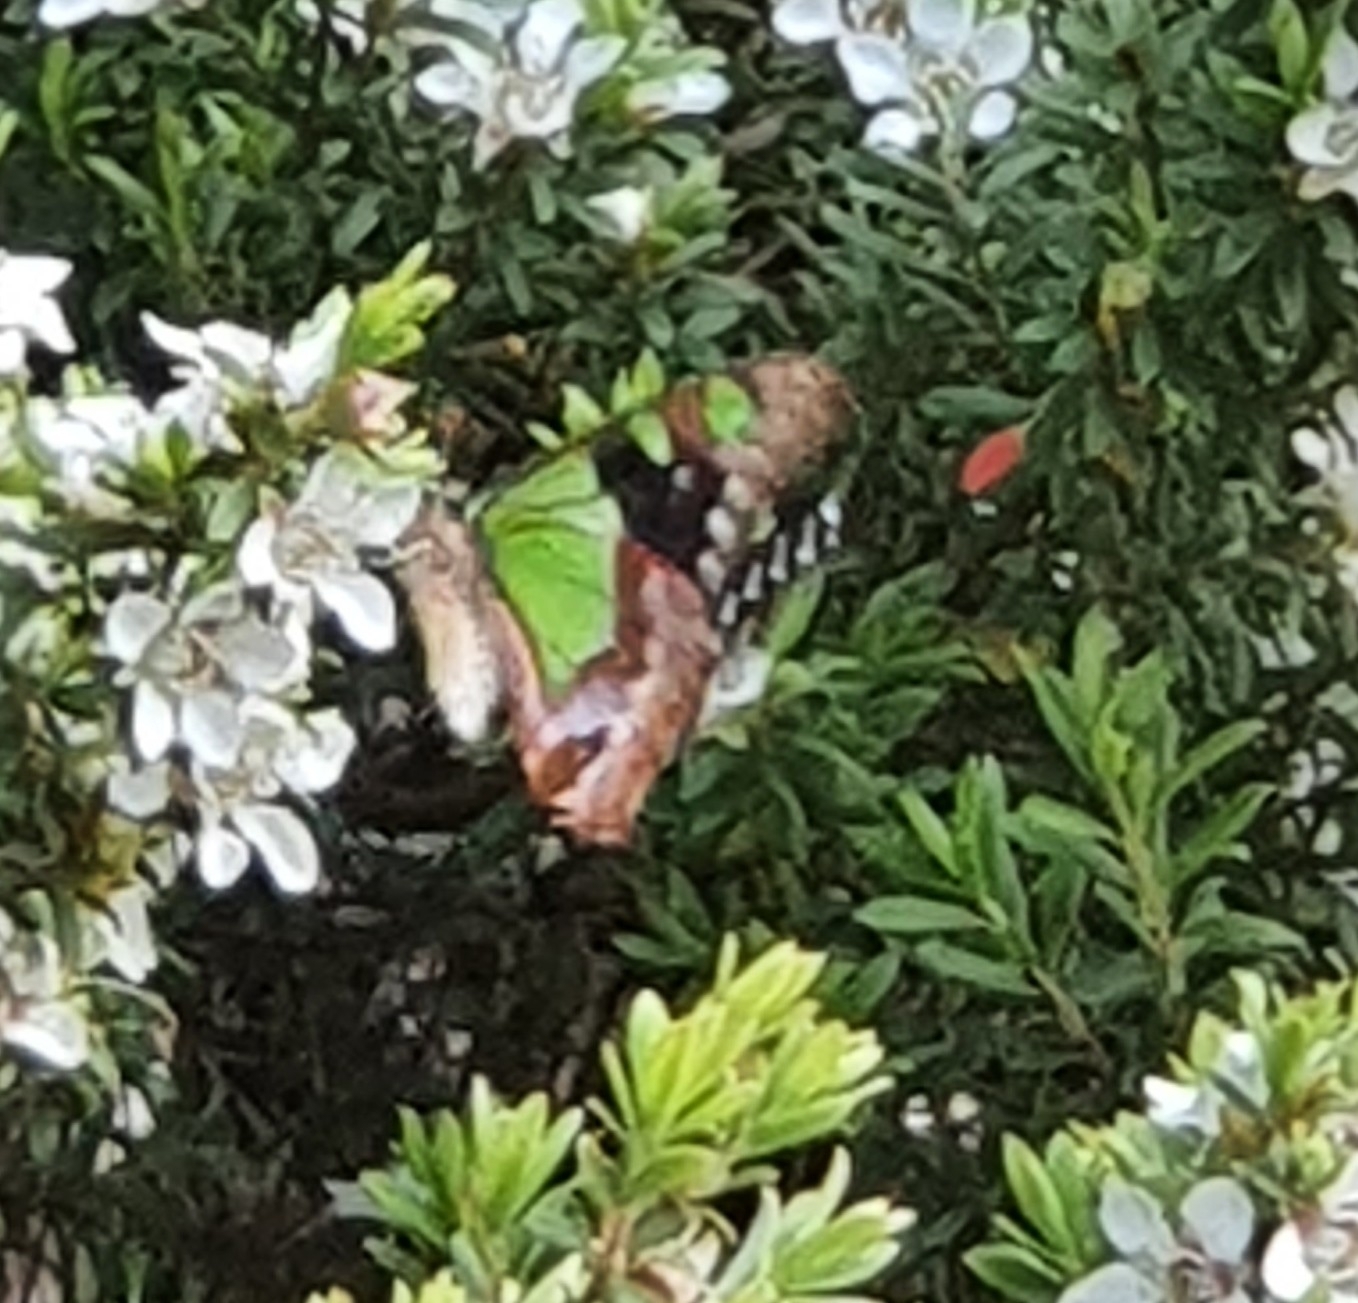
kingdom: Animalia
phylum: Arthropoda
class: Insecta
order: Lepidoptera
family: Papilionidae
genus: Graphium
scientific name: Graphium macleayanus
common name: Macleay's swallowtail
